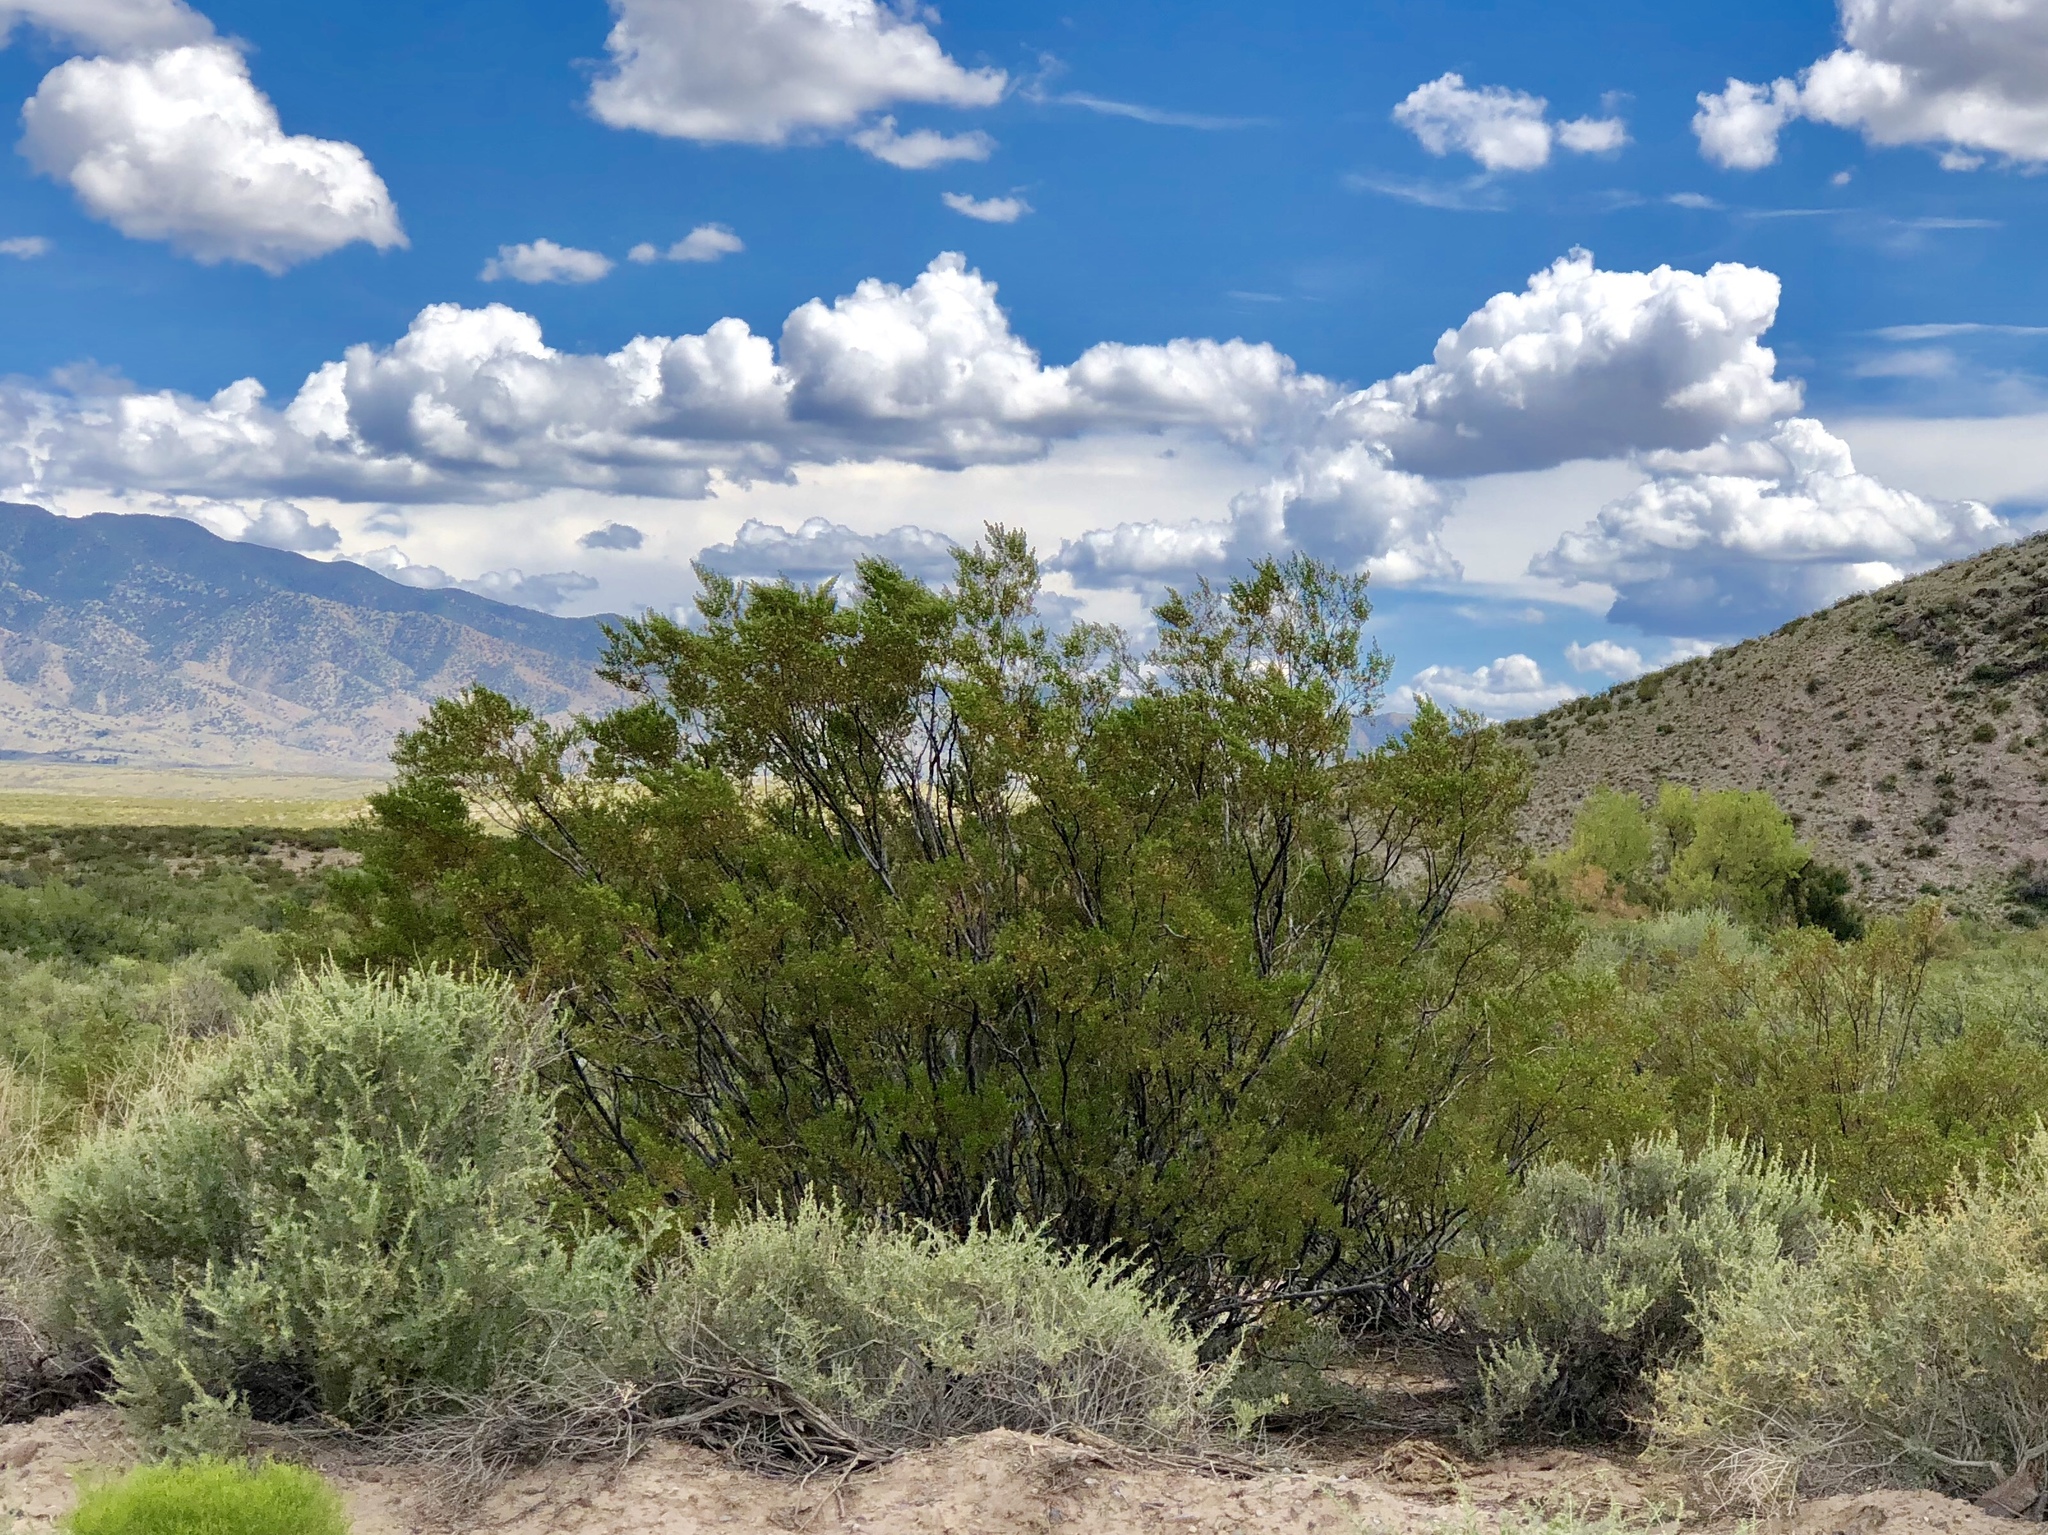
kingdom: Plantae
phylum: Tracheophyta
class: Magnoliopsida
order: Zygophyllales
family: Zygophyllaceae
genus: Larrea
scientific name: Larrea tridentata
